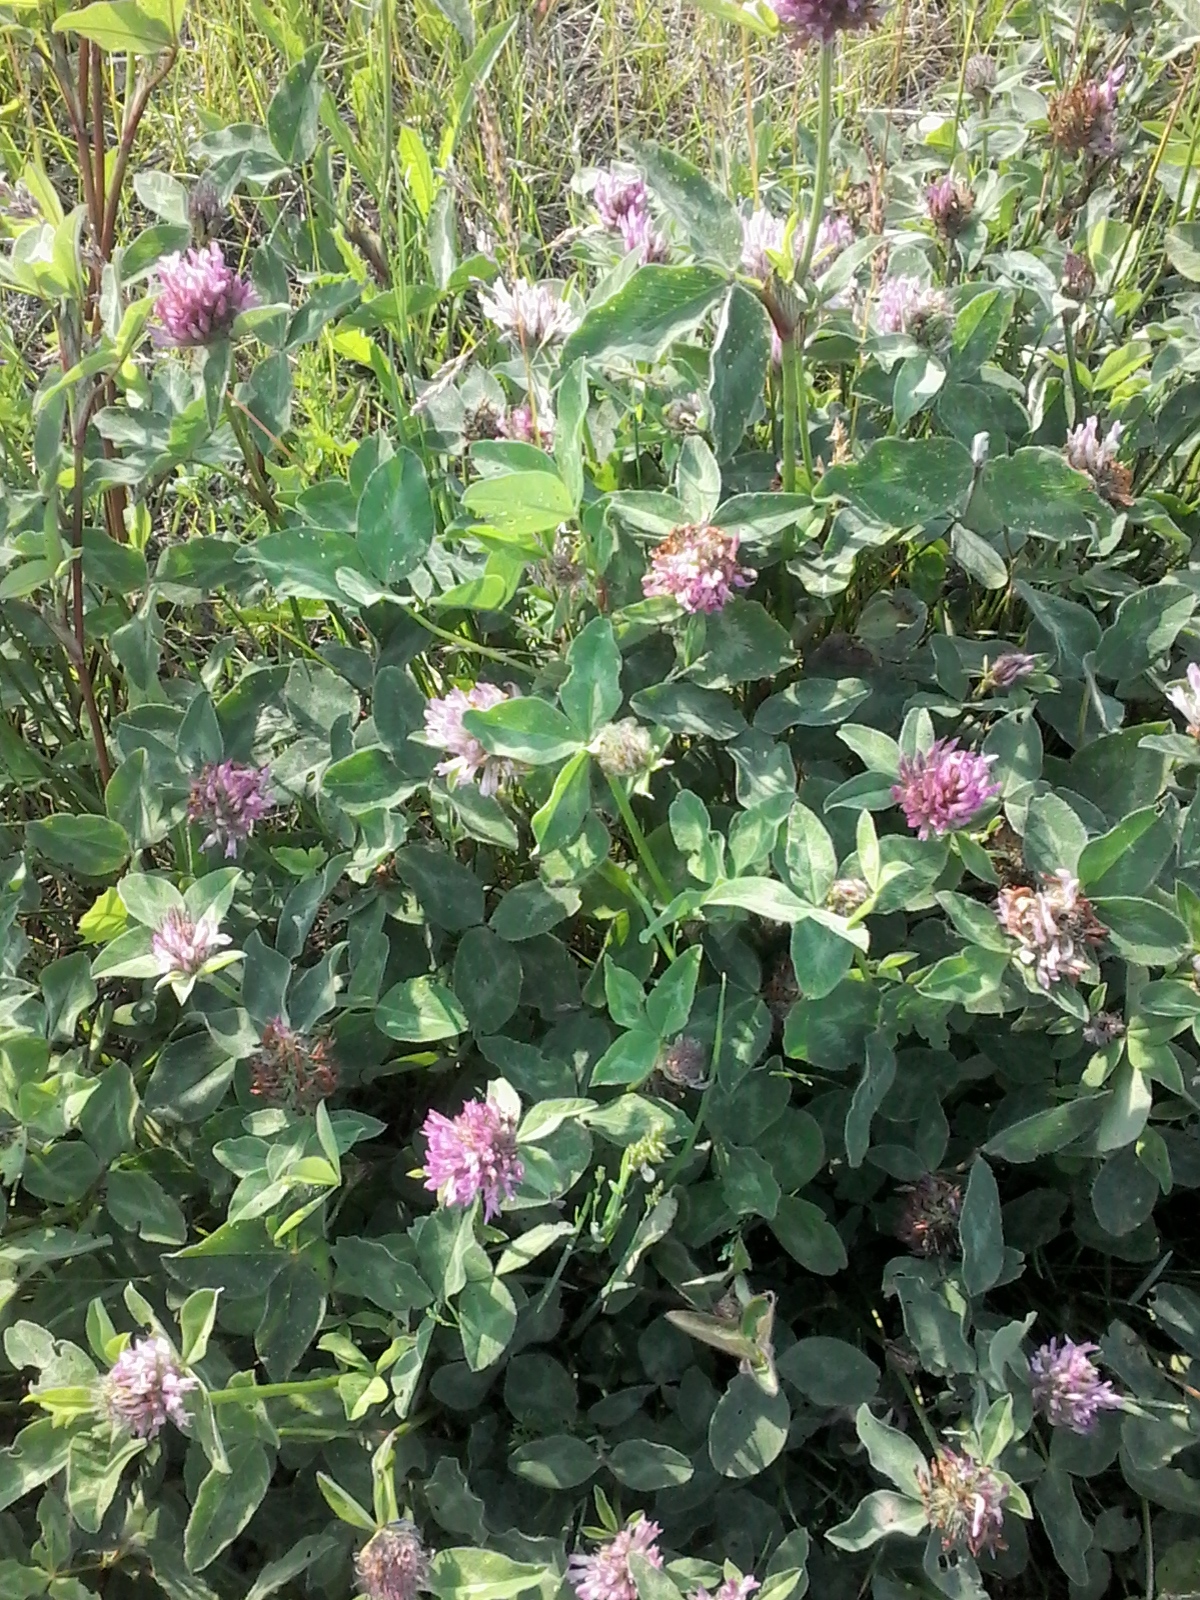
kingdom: Plantae
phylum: Tracheophyta
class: Magnoliopsida
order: Fabales
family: Fabaceae
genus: Trifolium
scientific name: Trifolium pratense
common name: Red clover
